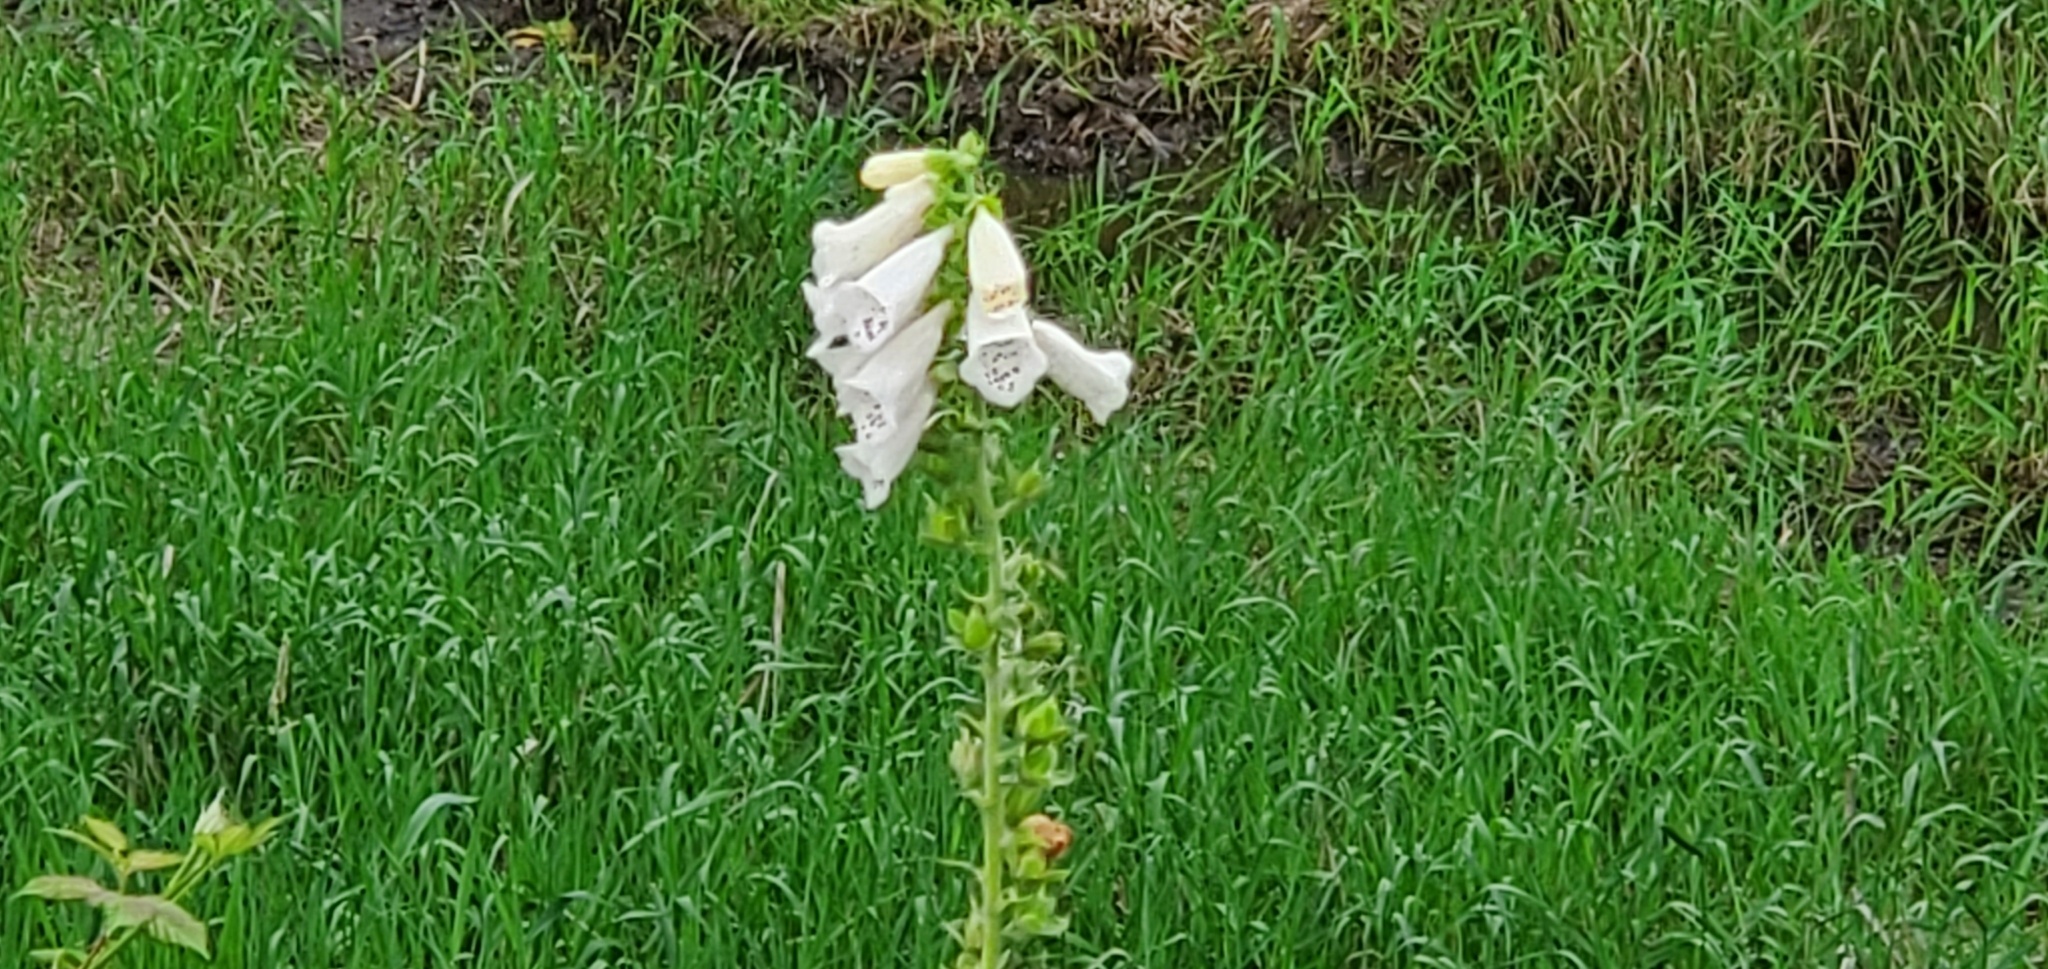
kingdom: Plantae
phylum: Tracheophyta
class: Magnoliopsida
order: Lamiales
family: Plantaginaceae
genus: Digitalis
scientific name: Digitalis purpurea
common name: Foxglove
